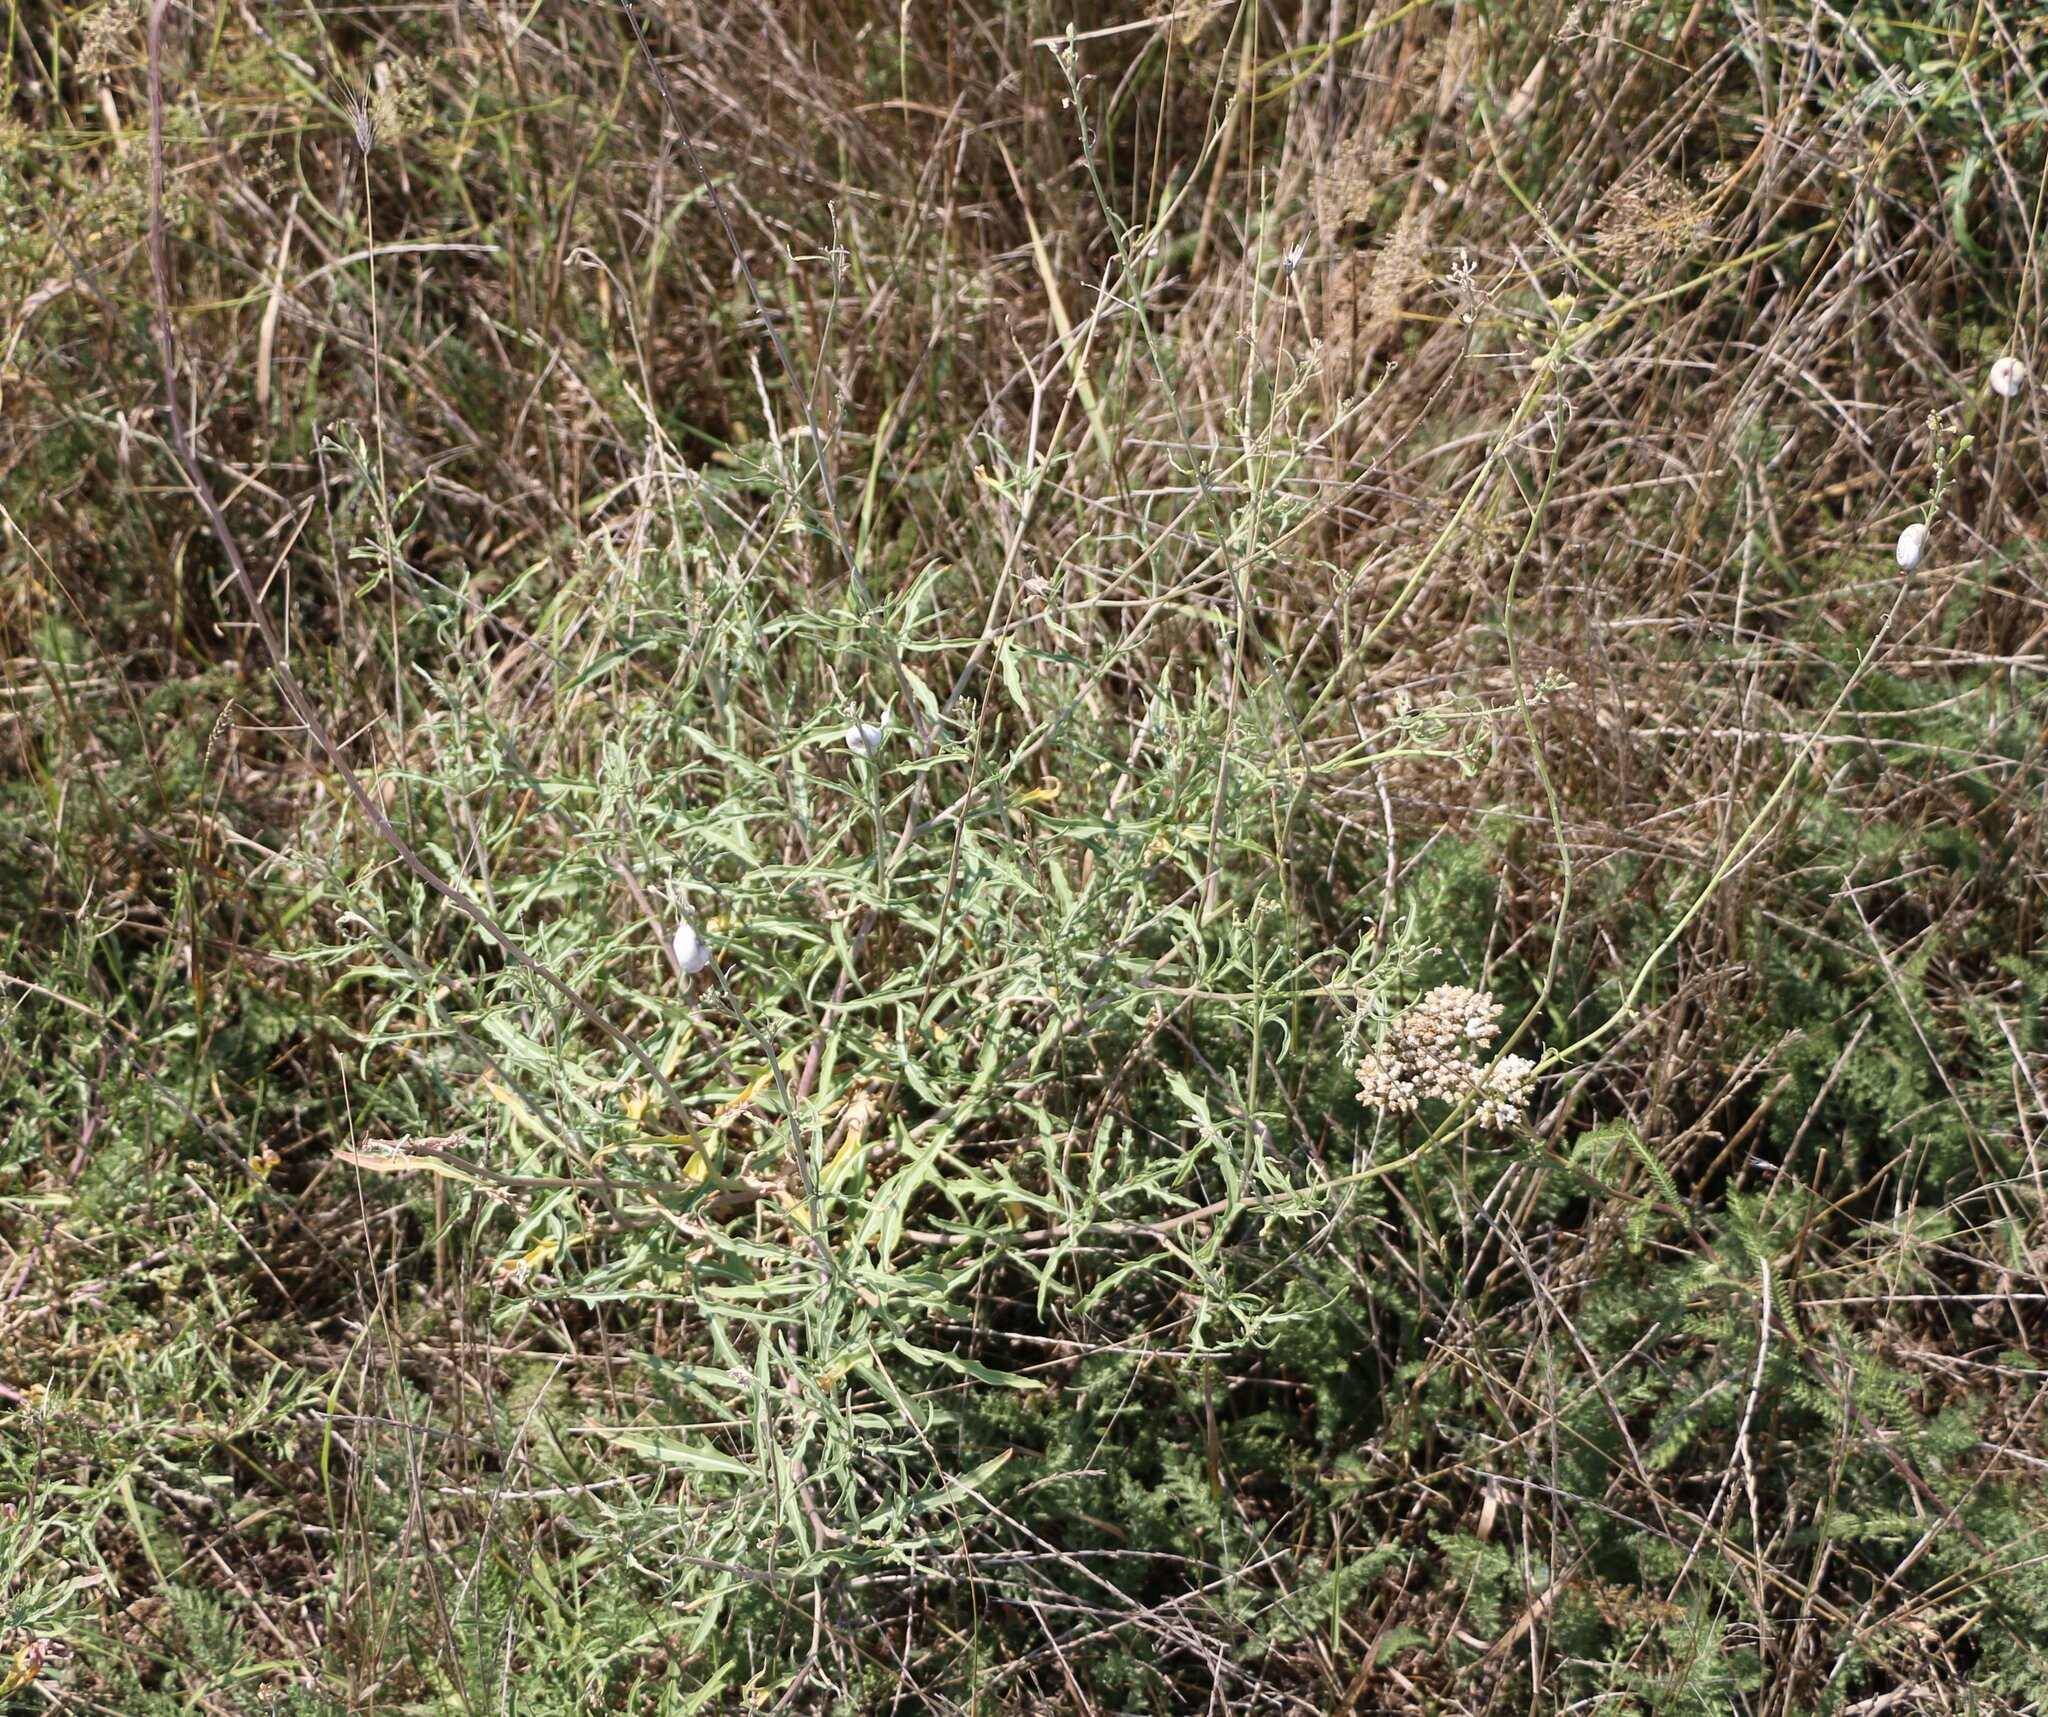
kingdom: Plantae
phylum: Tracheophyta
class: Magnoliopsida
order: Brassicales
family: Brassicaceae
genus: Diplotaxis
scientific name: Diplotaxis tenuifolia
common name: Perennial wall-rocket
